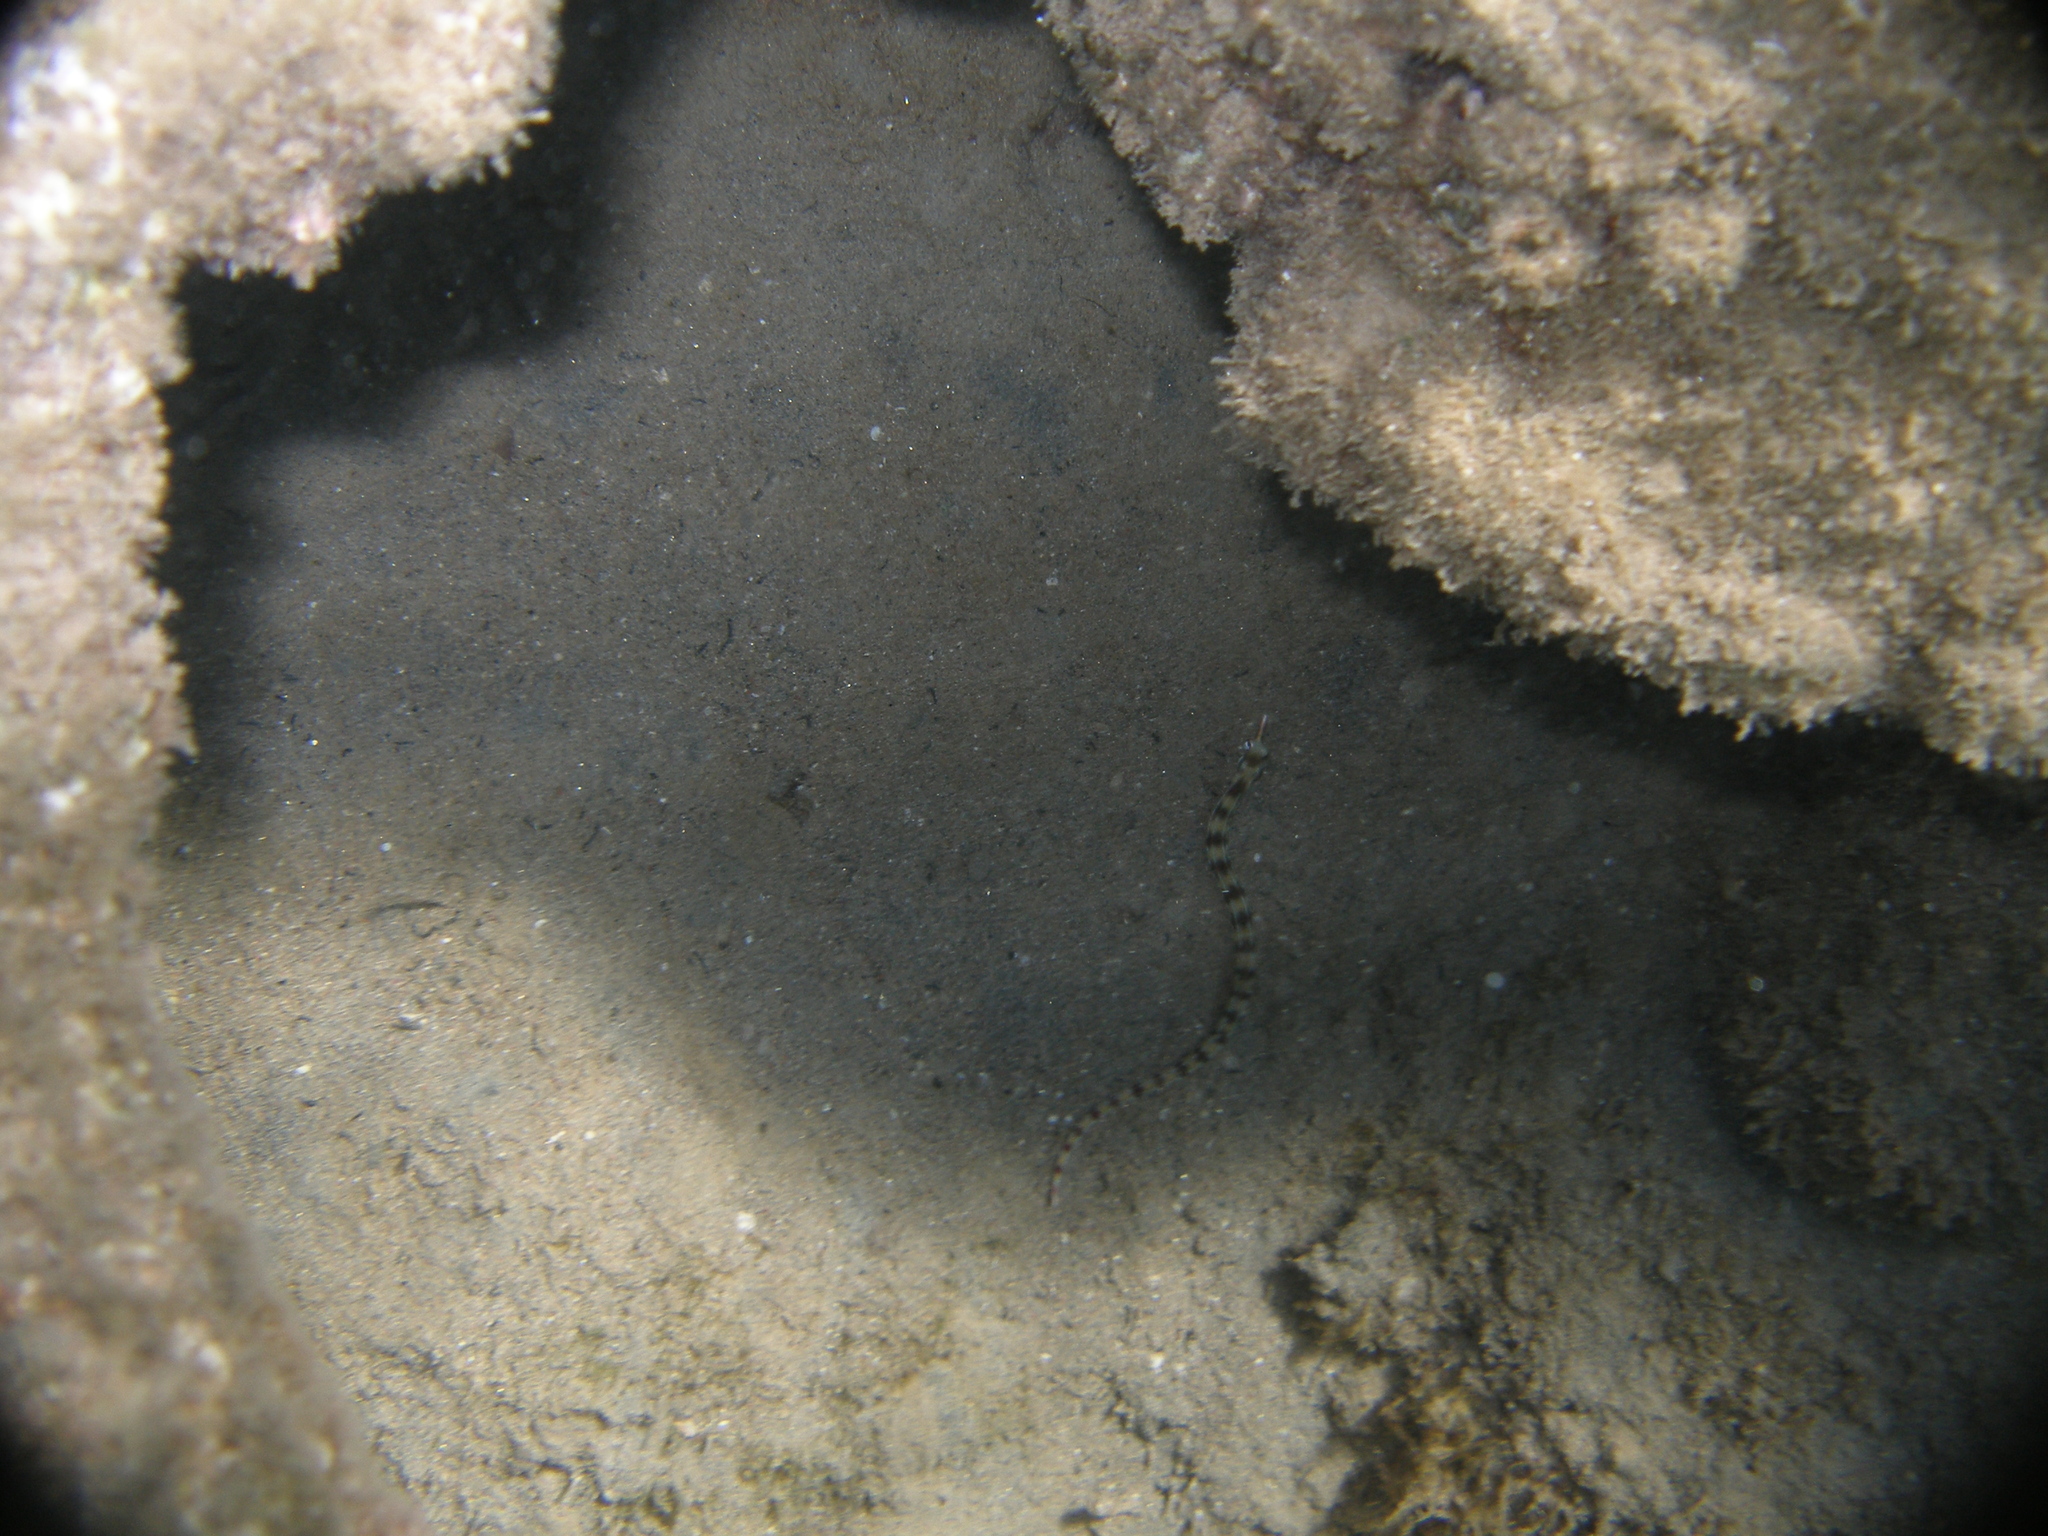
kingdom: Animalia
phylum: Chordata
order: Syngnathiformes
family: Syngnathidae
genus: Corythoichthys
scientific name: Corythoichthys flavofasciatus
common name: Banded pipefish
